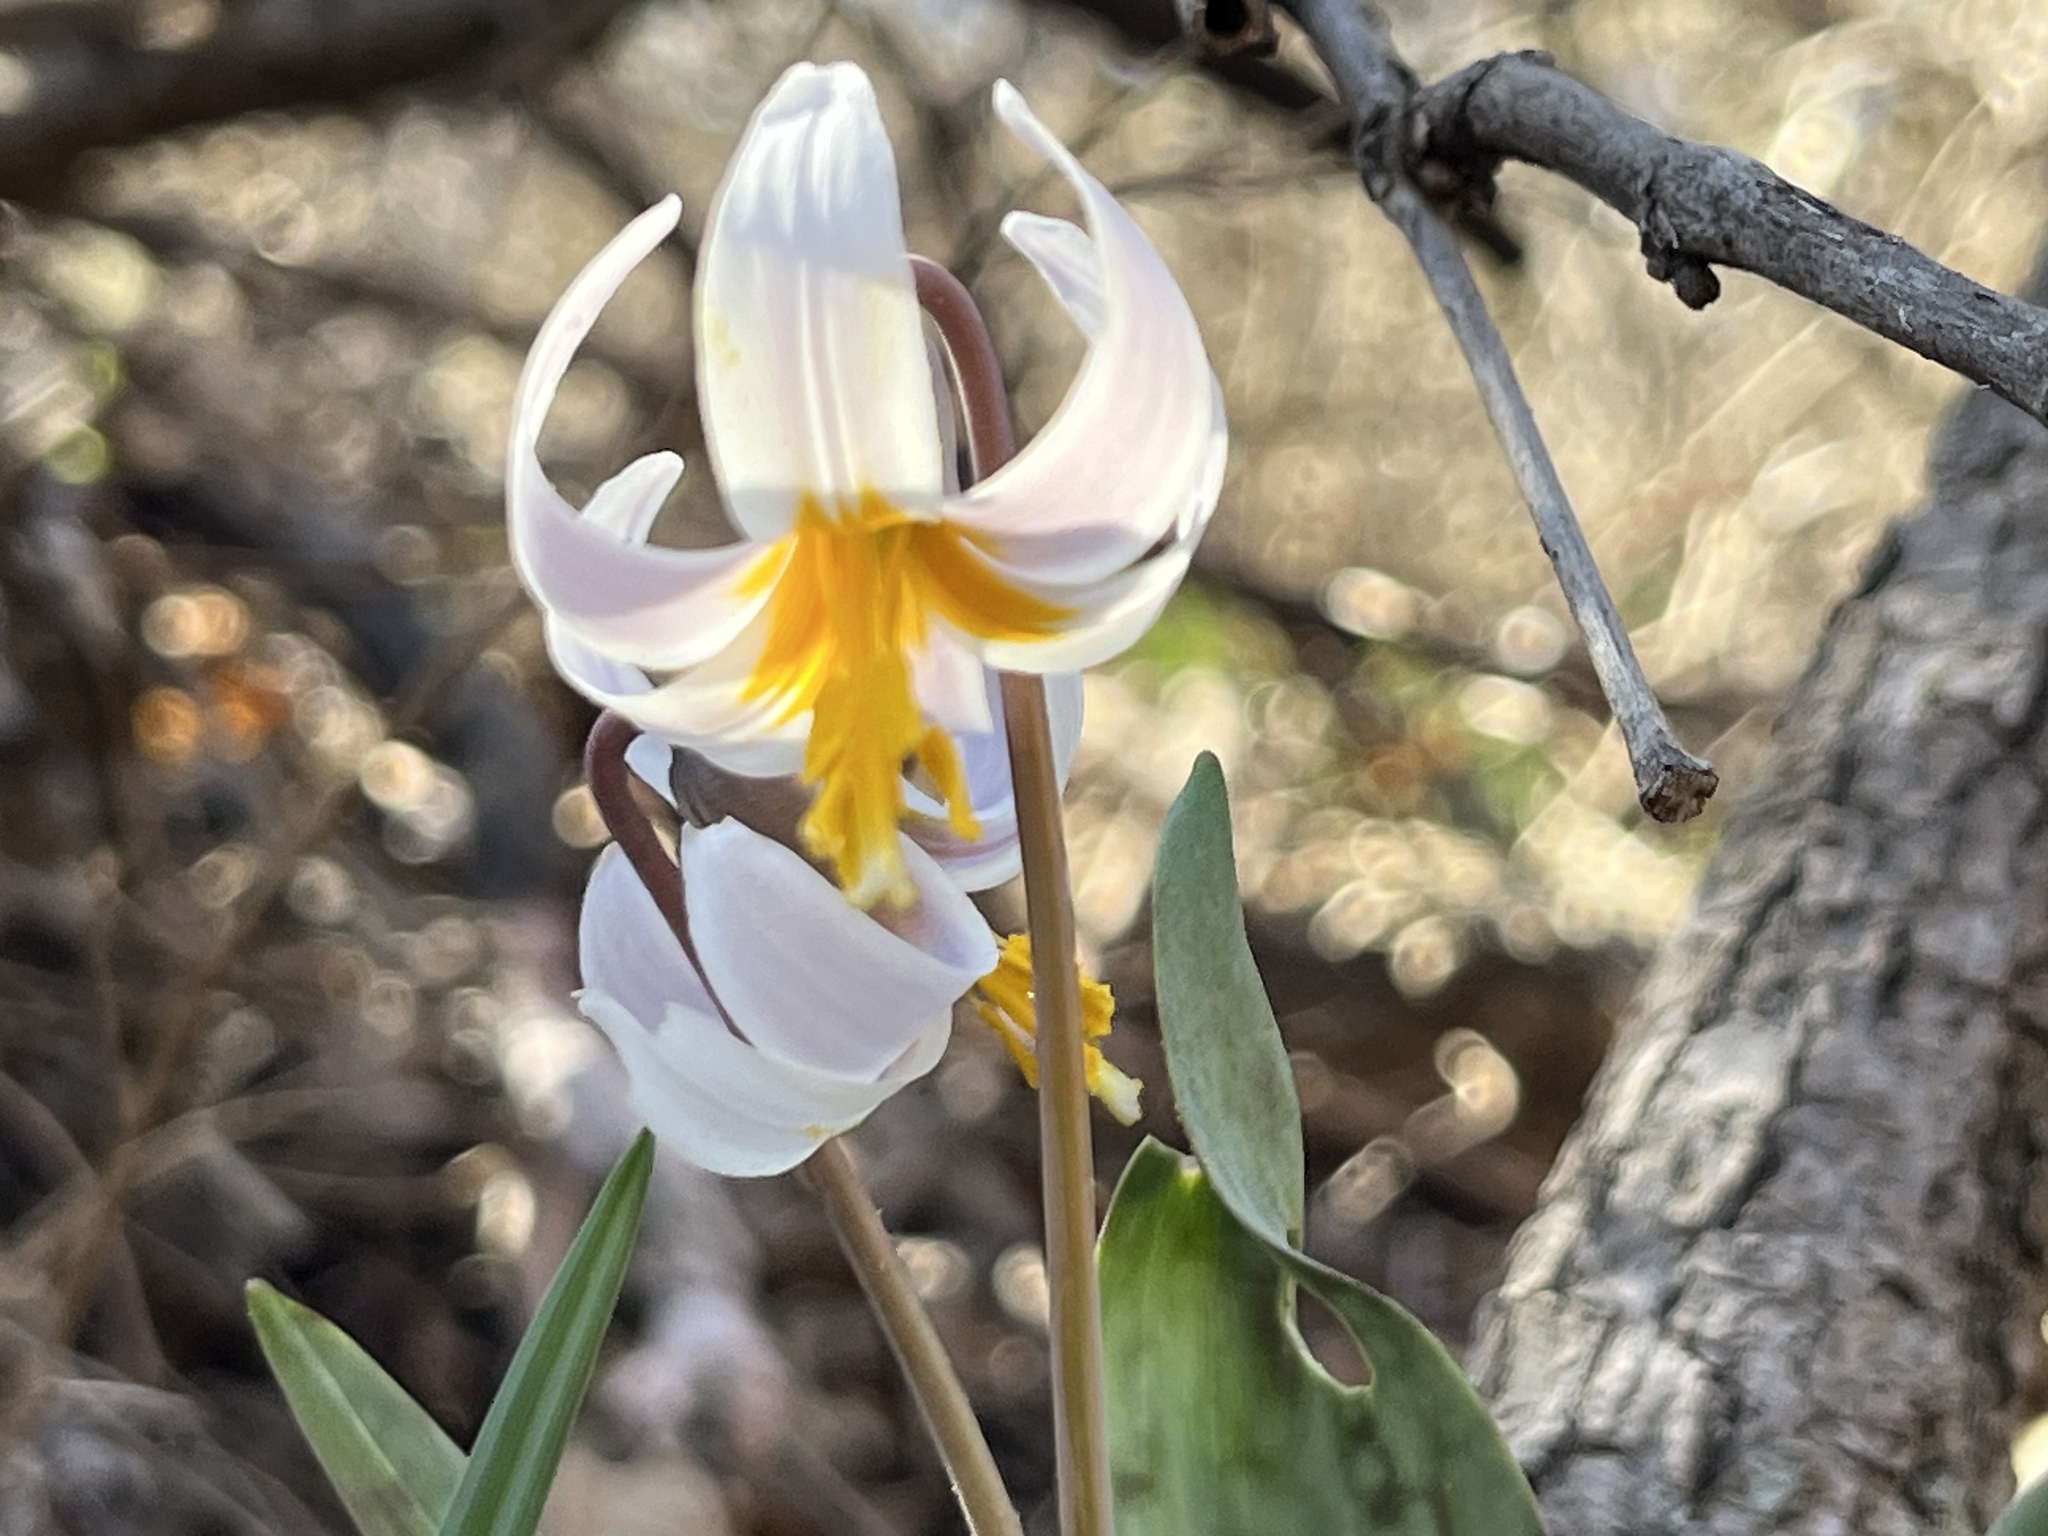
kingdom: Plantae
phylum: Tracheophyta
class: Liliopsida
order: Liliales
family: Liliaceae
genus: Erythronium
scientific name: Erythronium albidum
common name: White trout-lily
